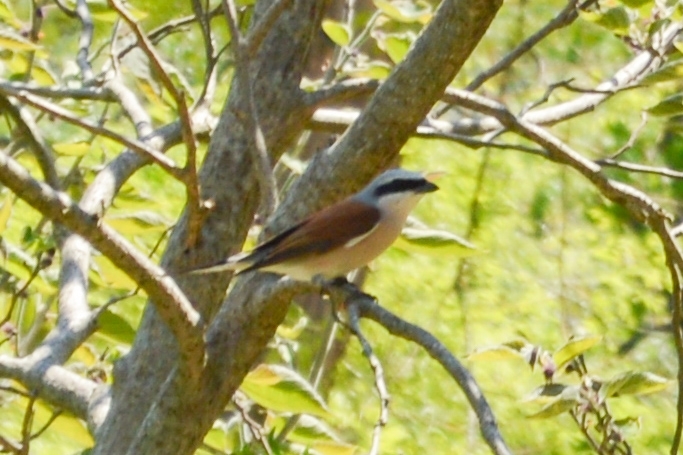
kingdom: Animalia
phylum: Chordata
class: Aves
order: Passeriformes
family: Laniidae
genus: Lanius
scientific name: Lanius collurio
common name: Red-backed shrike
